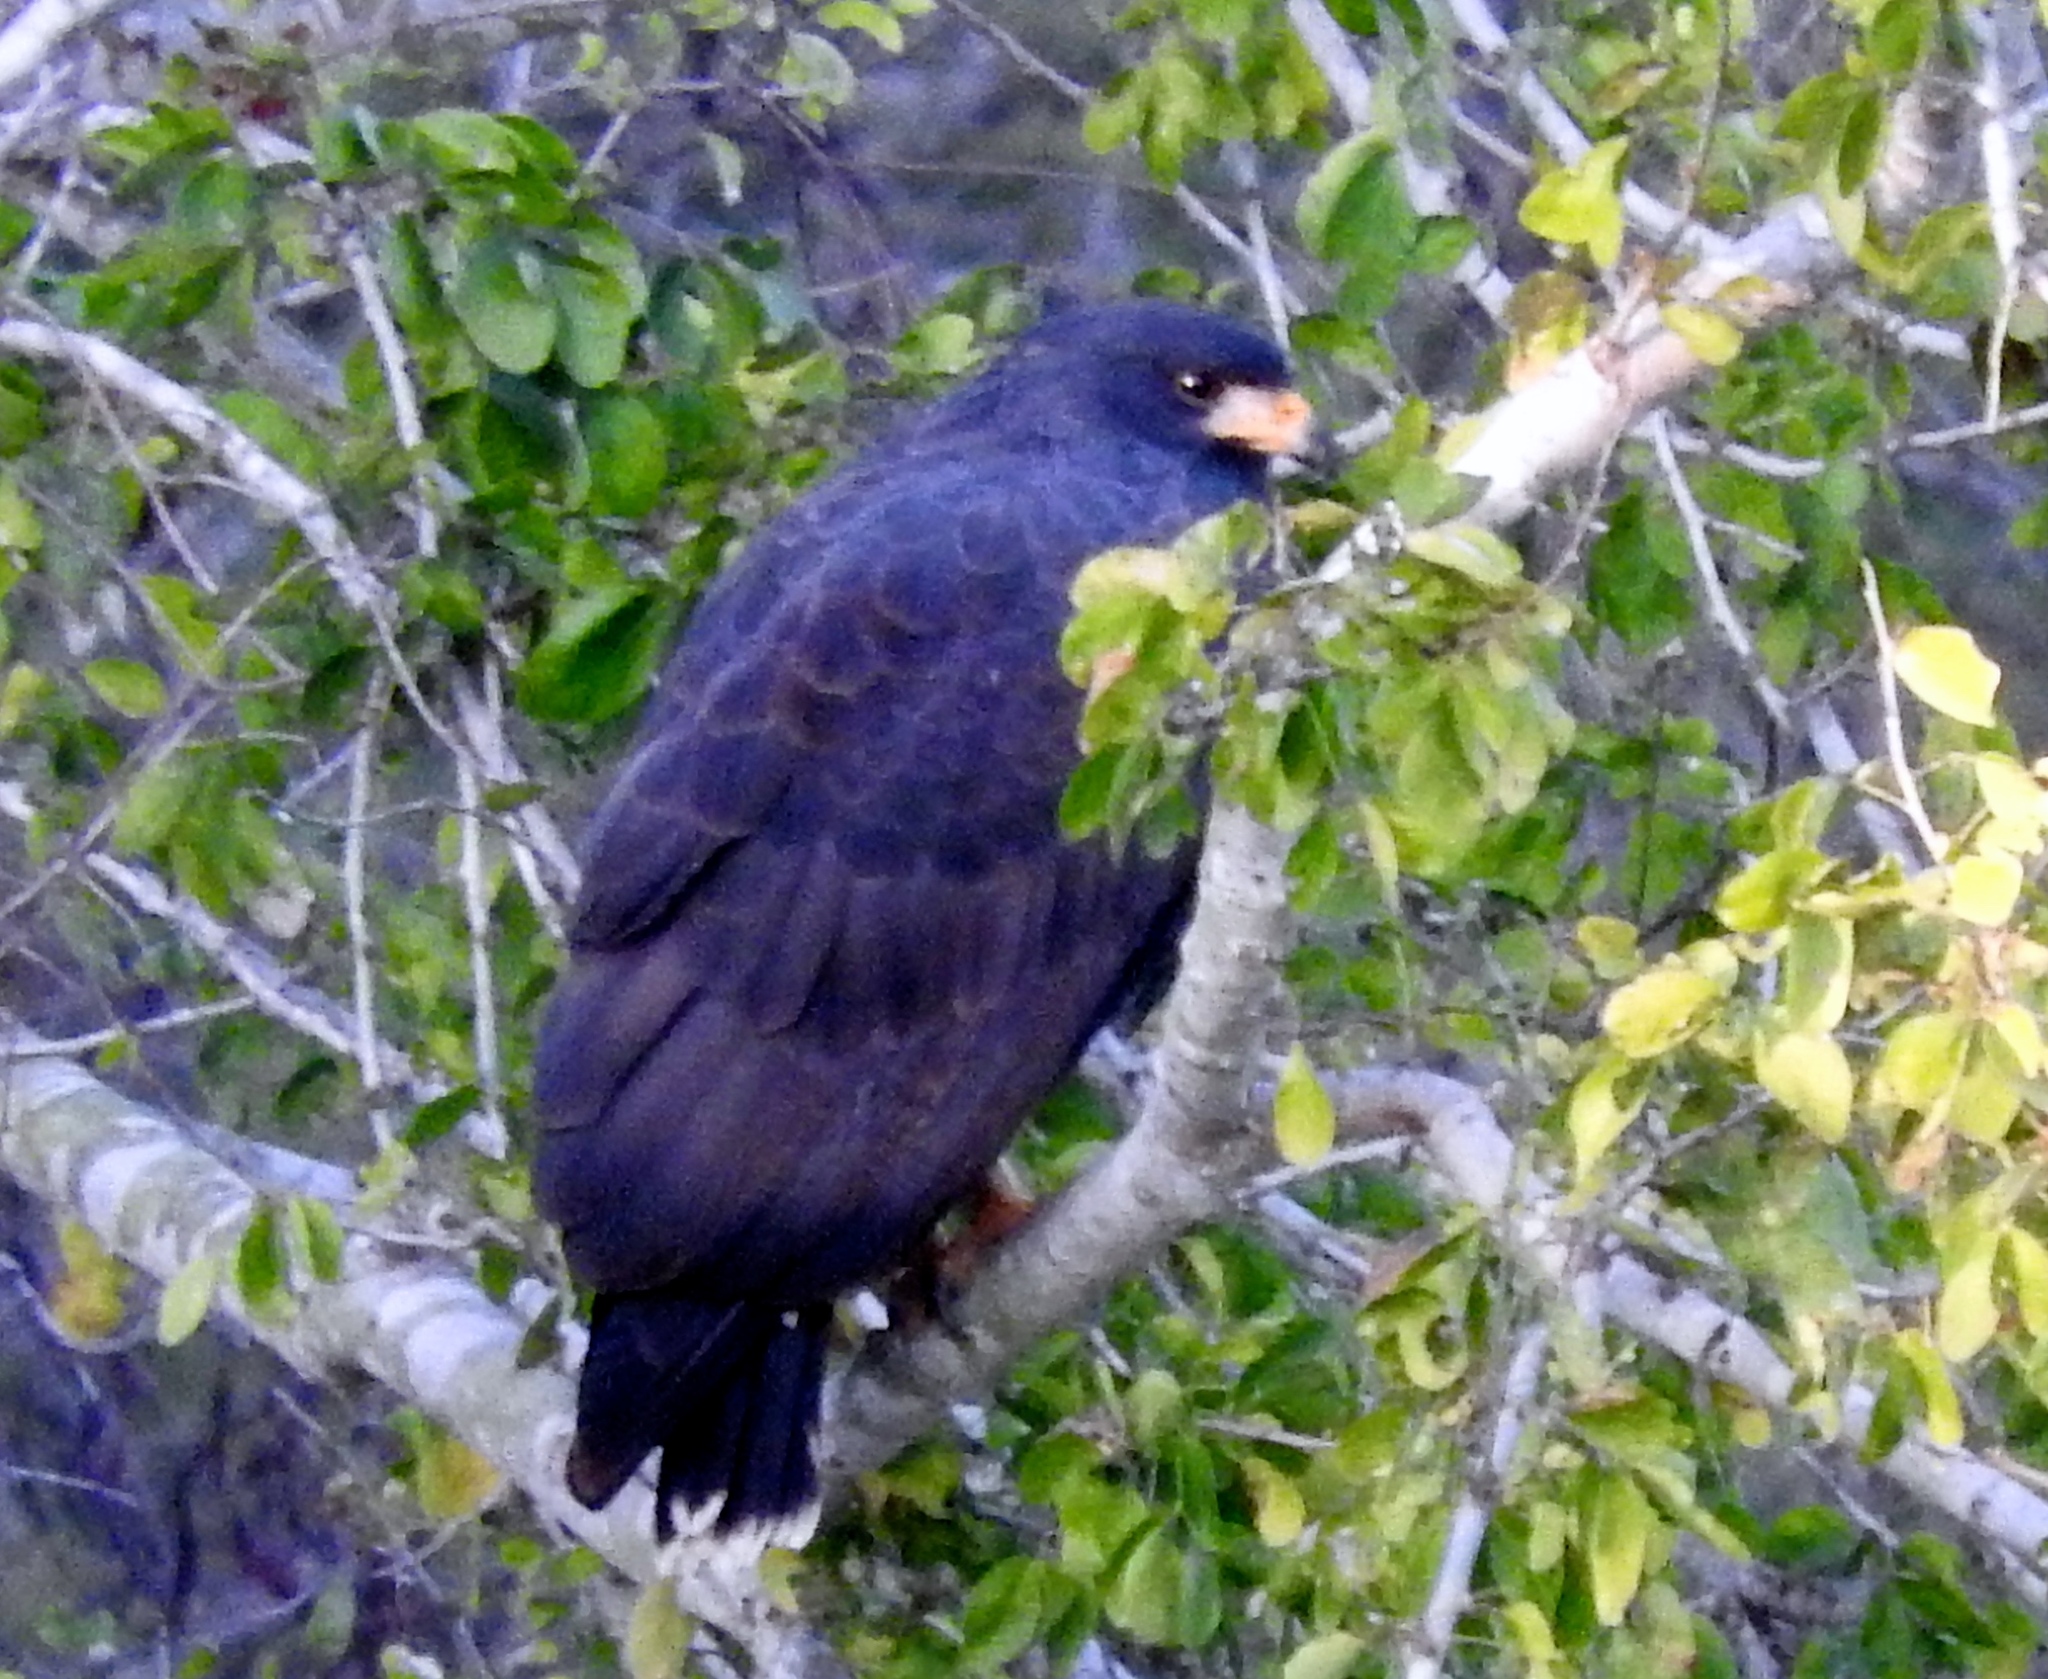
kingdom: Animalia
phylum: Chordata
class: Aves
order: Accipitriformes
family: Accipitridae
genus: Buteogallus
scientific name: Buteogallus anthracinus
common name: Common black hawk
